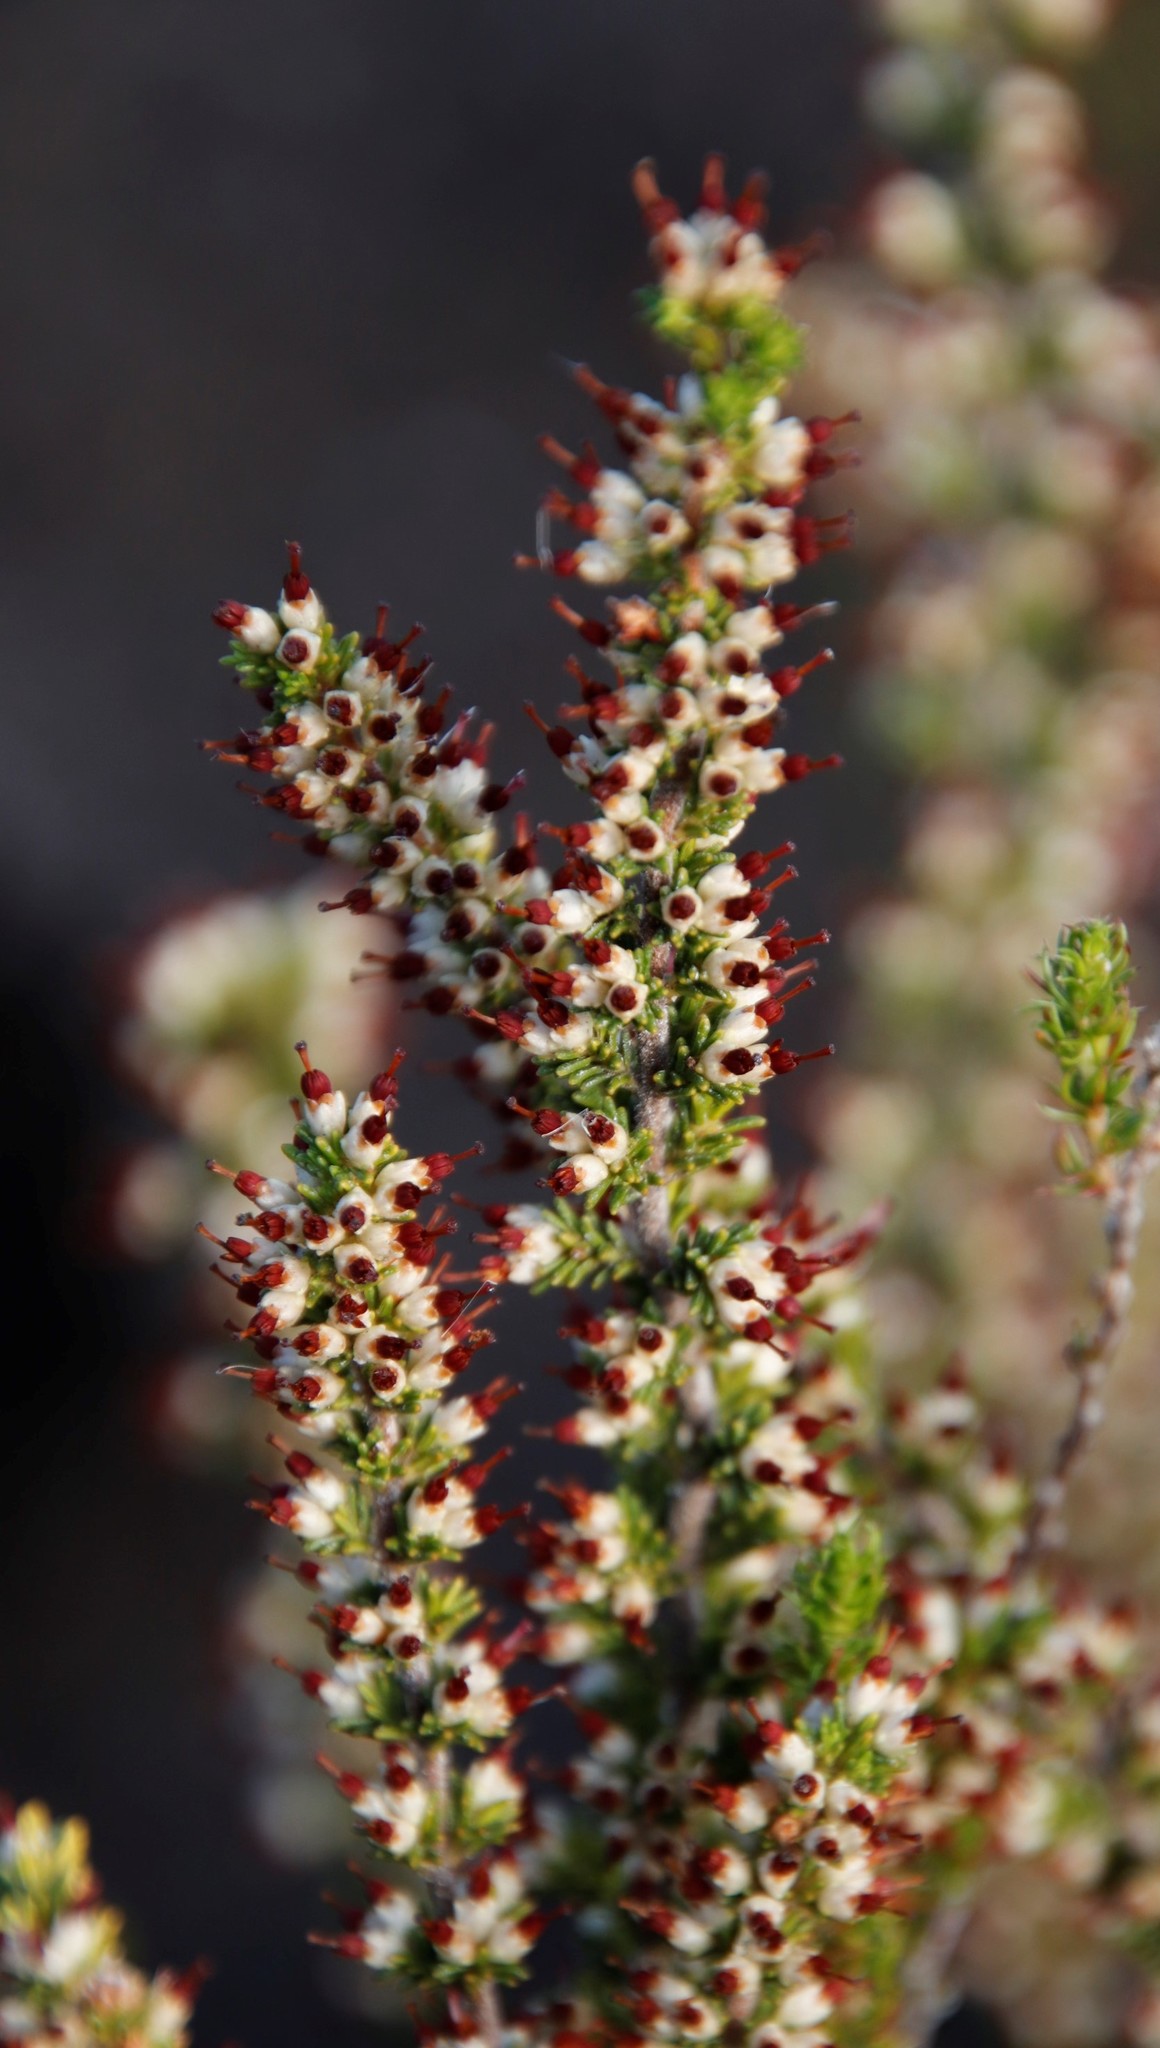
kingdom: Plantae
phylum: Tracheophyta
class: Magnoliopsida
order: Ericales
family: Ericaceae
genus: Erica
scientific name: Erica lasciva
